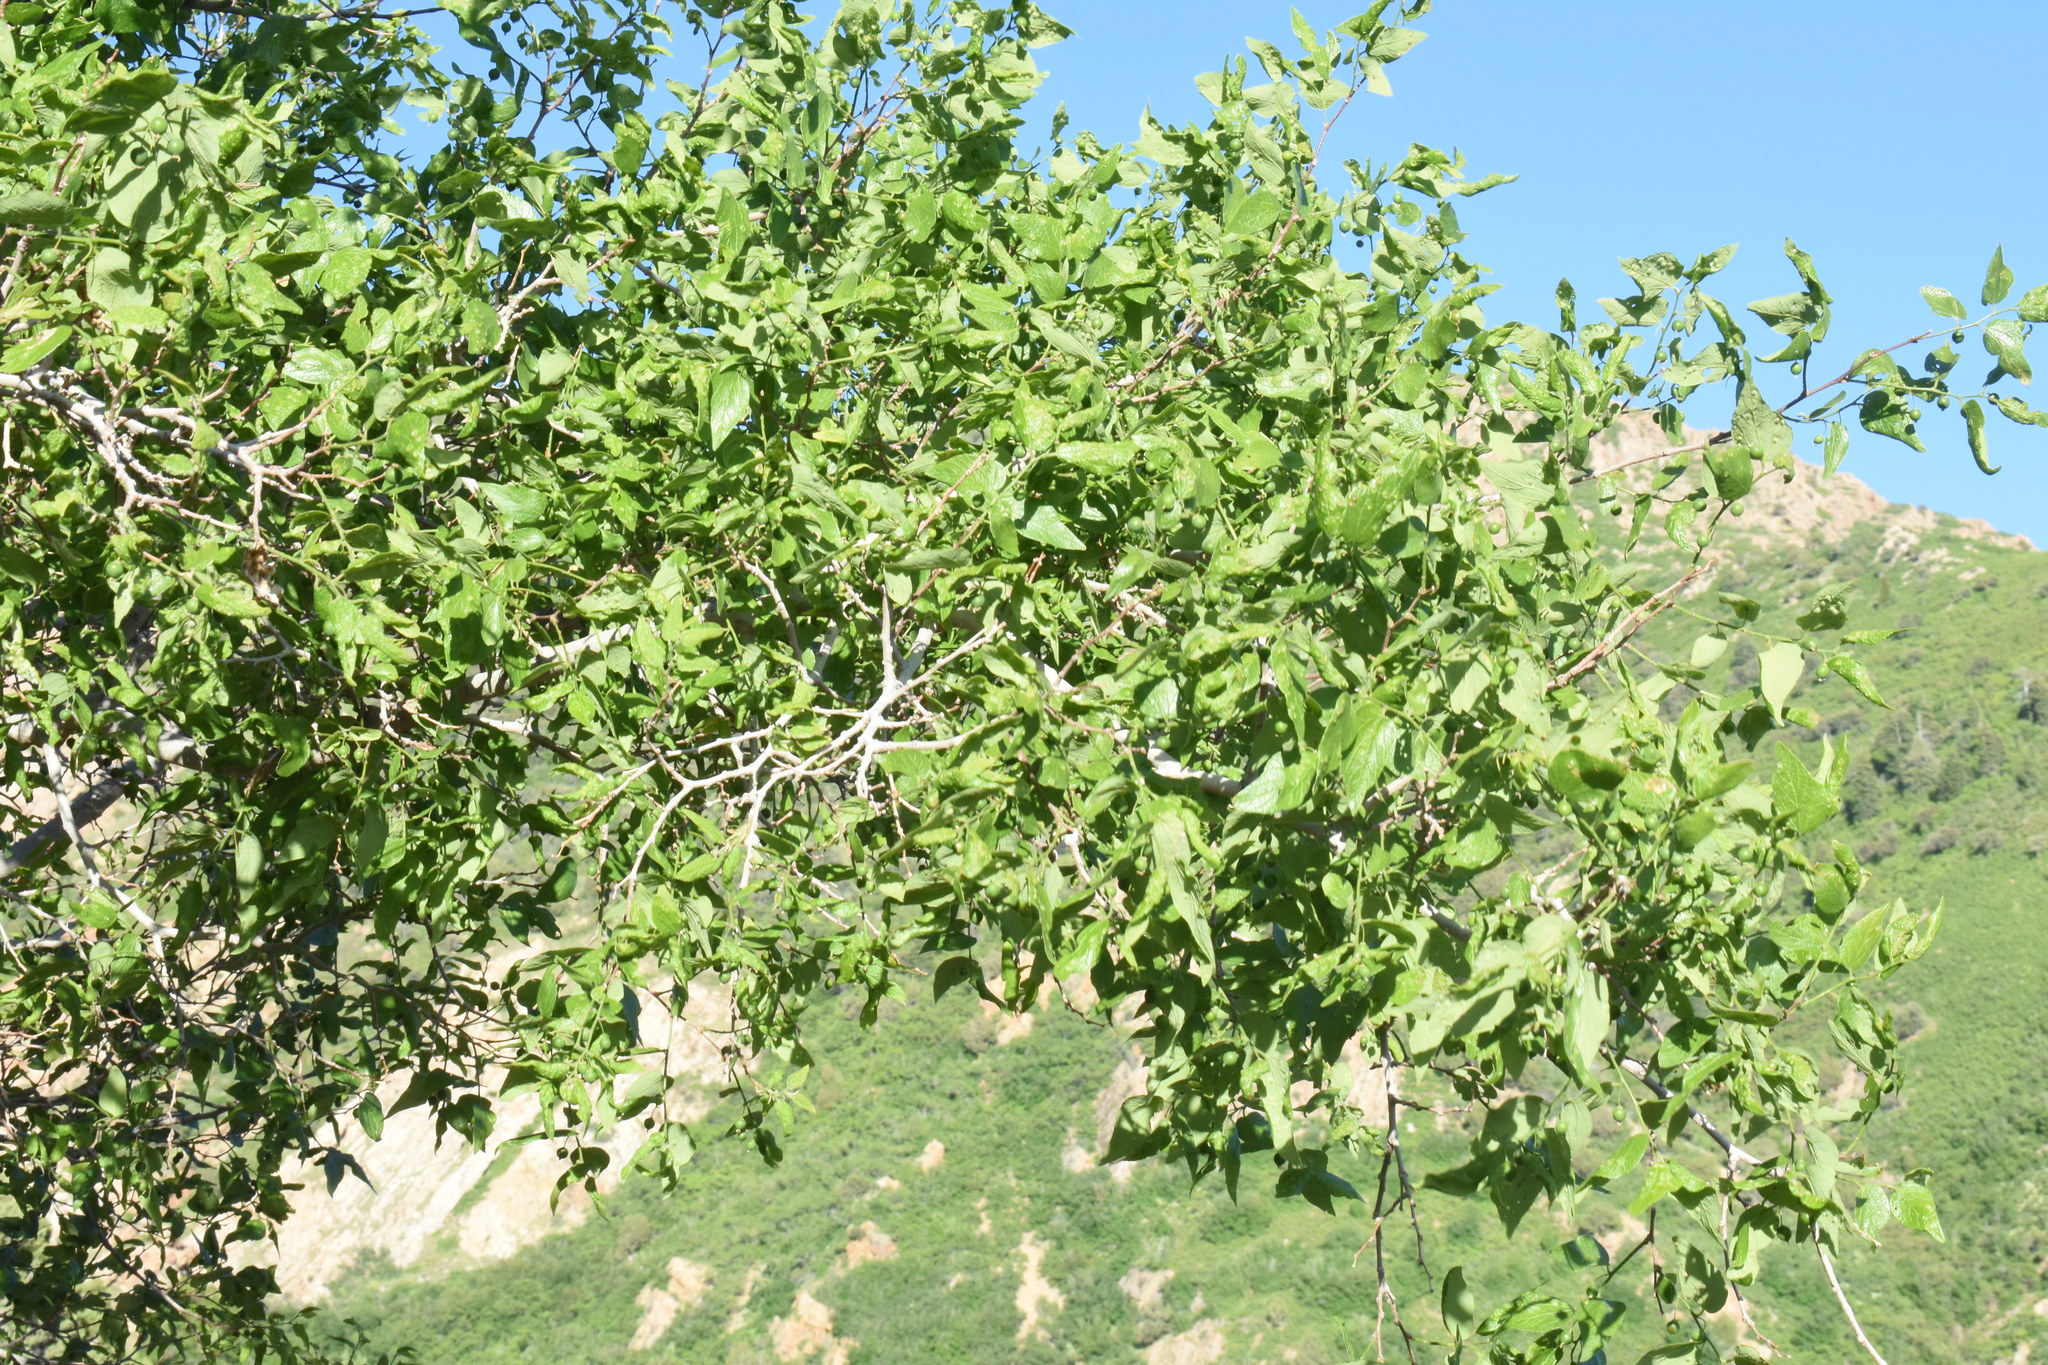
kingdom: Plantae
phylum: Tracheophyta
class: Magnoliopsida
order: Rosales
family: Cannabaceae
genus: Celtis
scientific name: Celtis reticulata
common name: Netleaf hackberry
